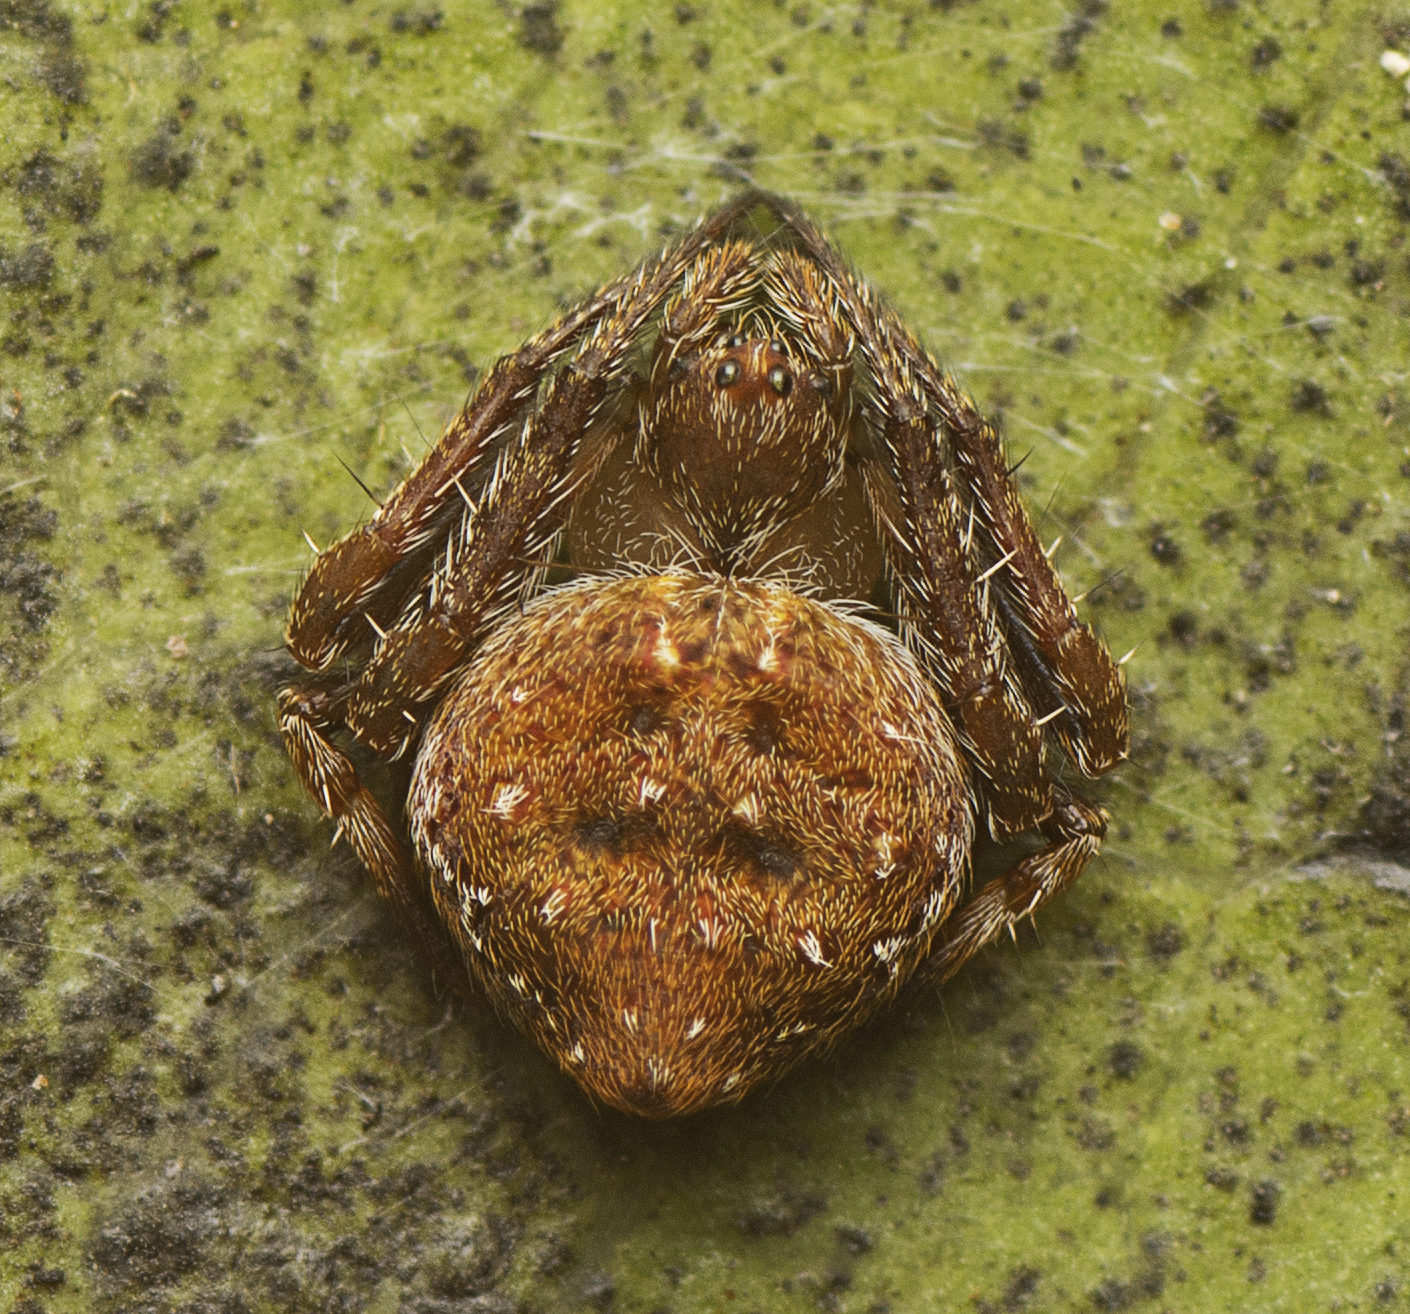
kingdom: Animalia
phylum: Arthropoda
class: Arachnida
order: Araneae
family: Araneidae
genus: Araneus
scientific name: Araneus acuminatus
